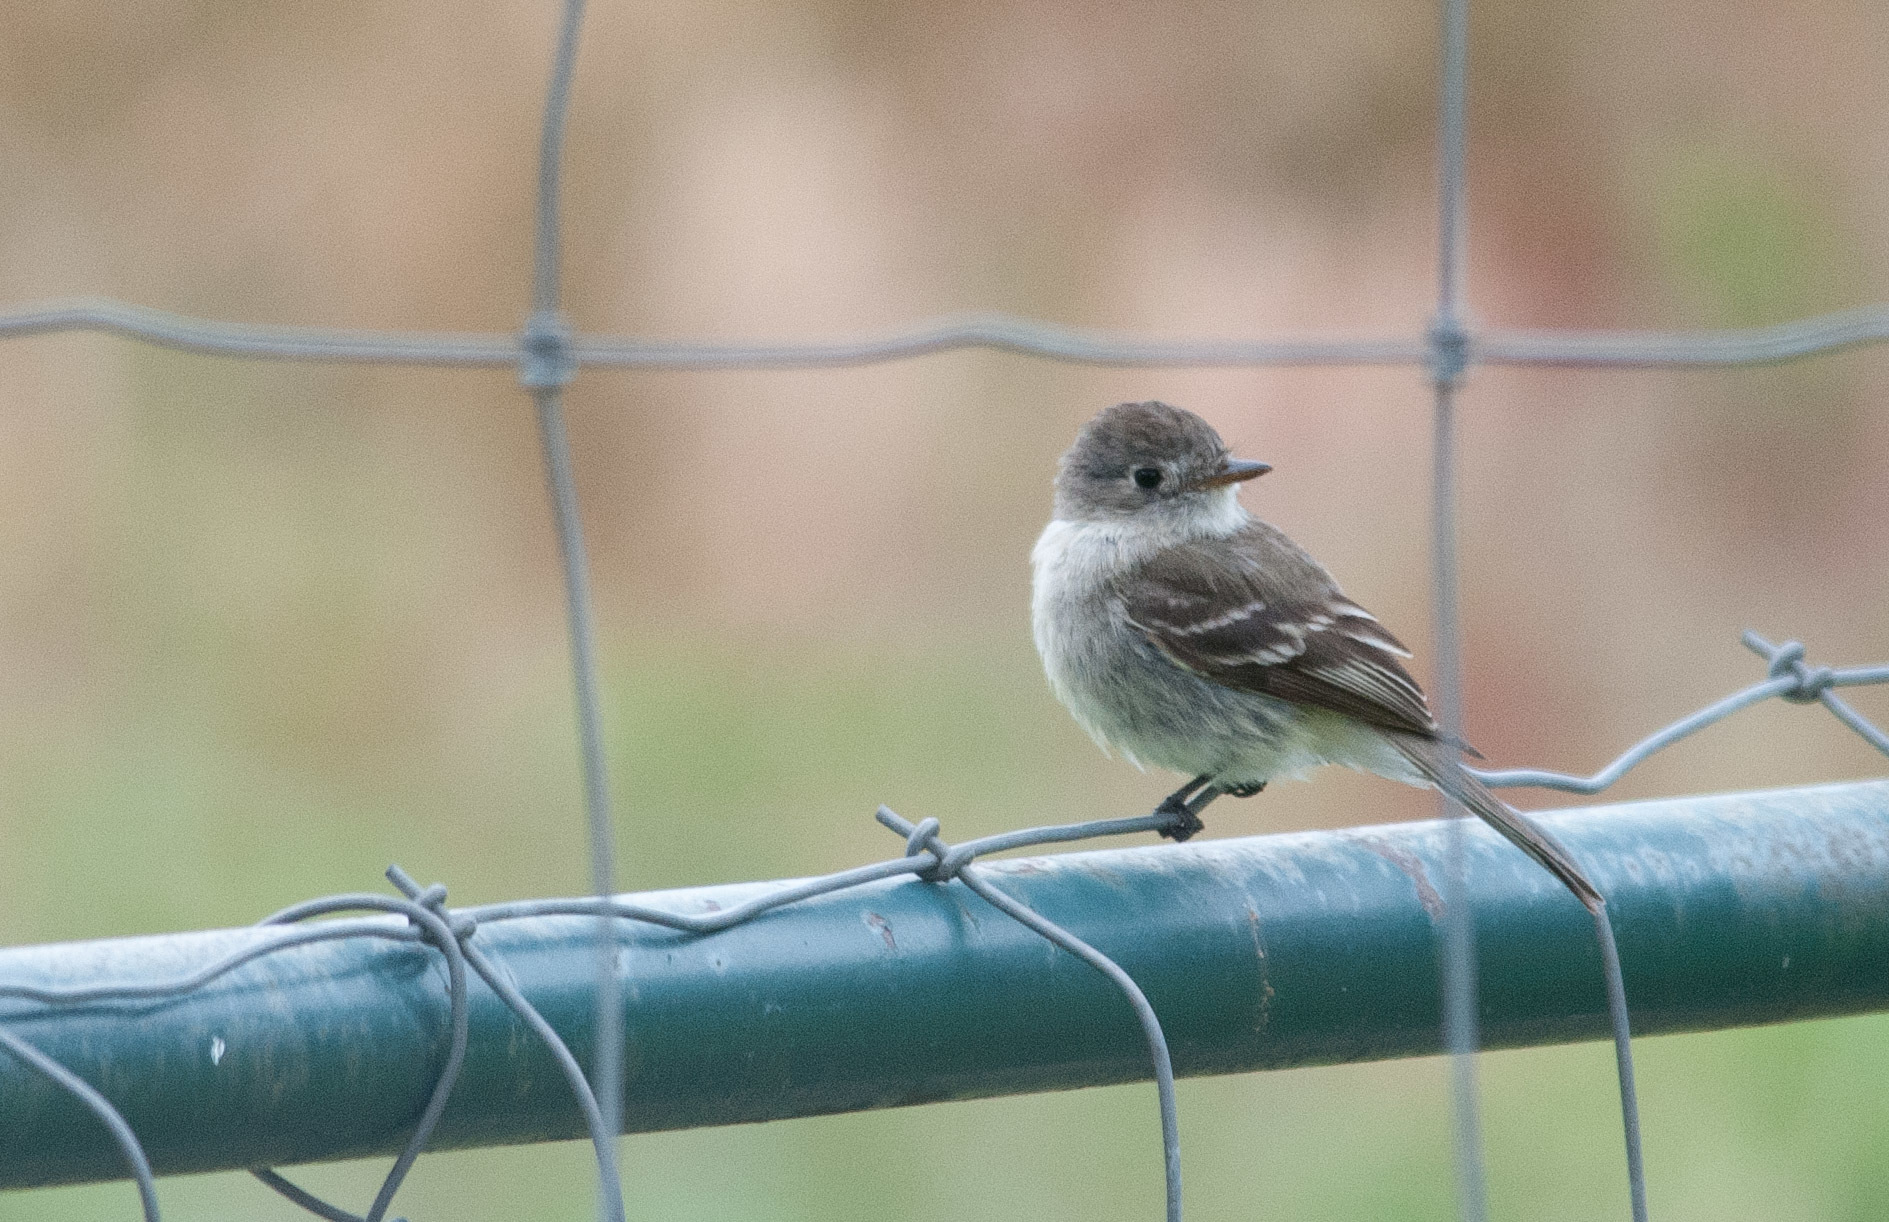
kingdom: Animalia
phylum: Chordata
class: Aves
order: Passeriformes
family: Tyrannidae
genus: Empidonax
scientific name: Empidonax oberholseri
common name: Dusky flycatcher
